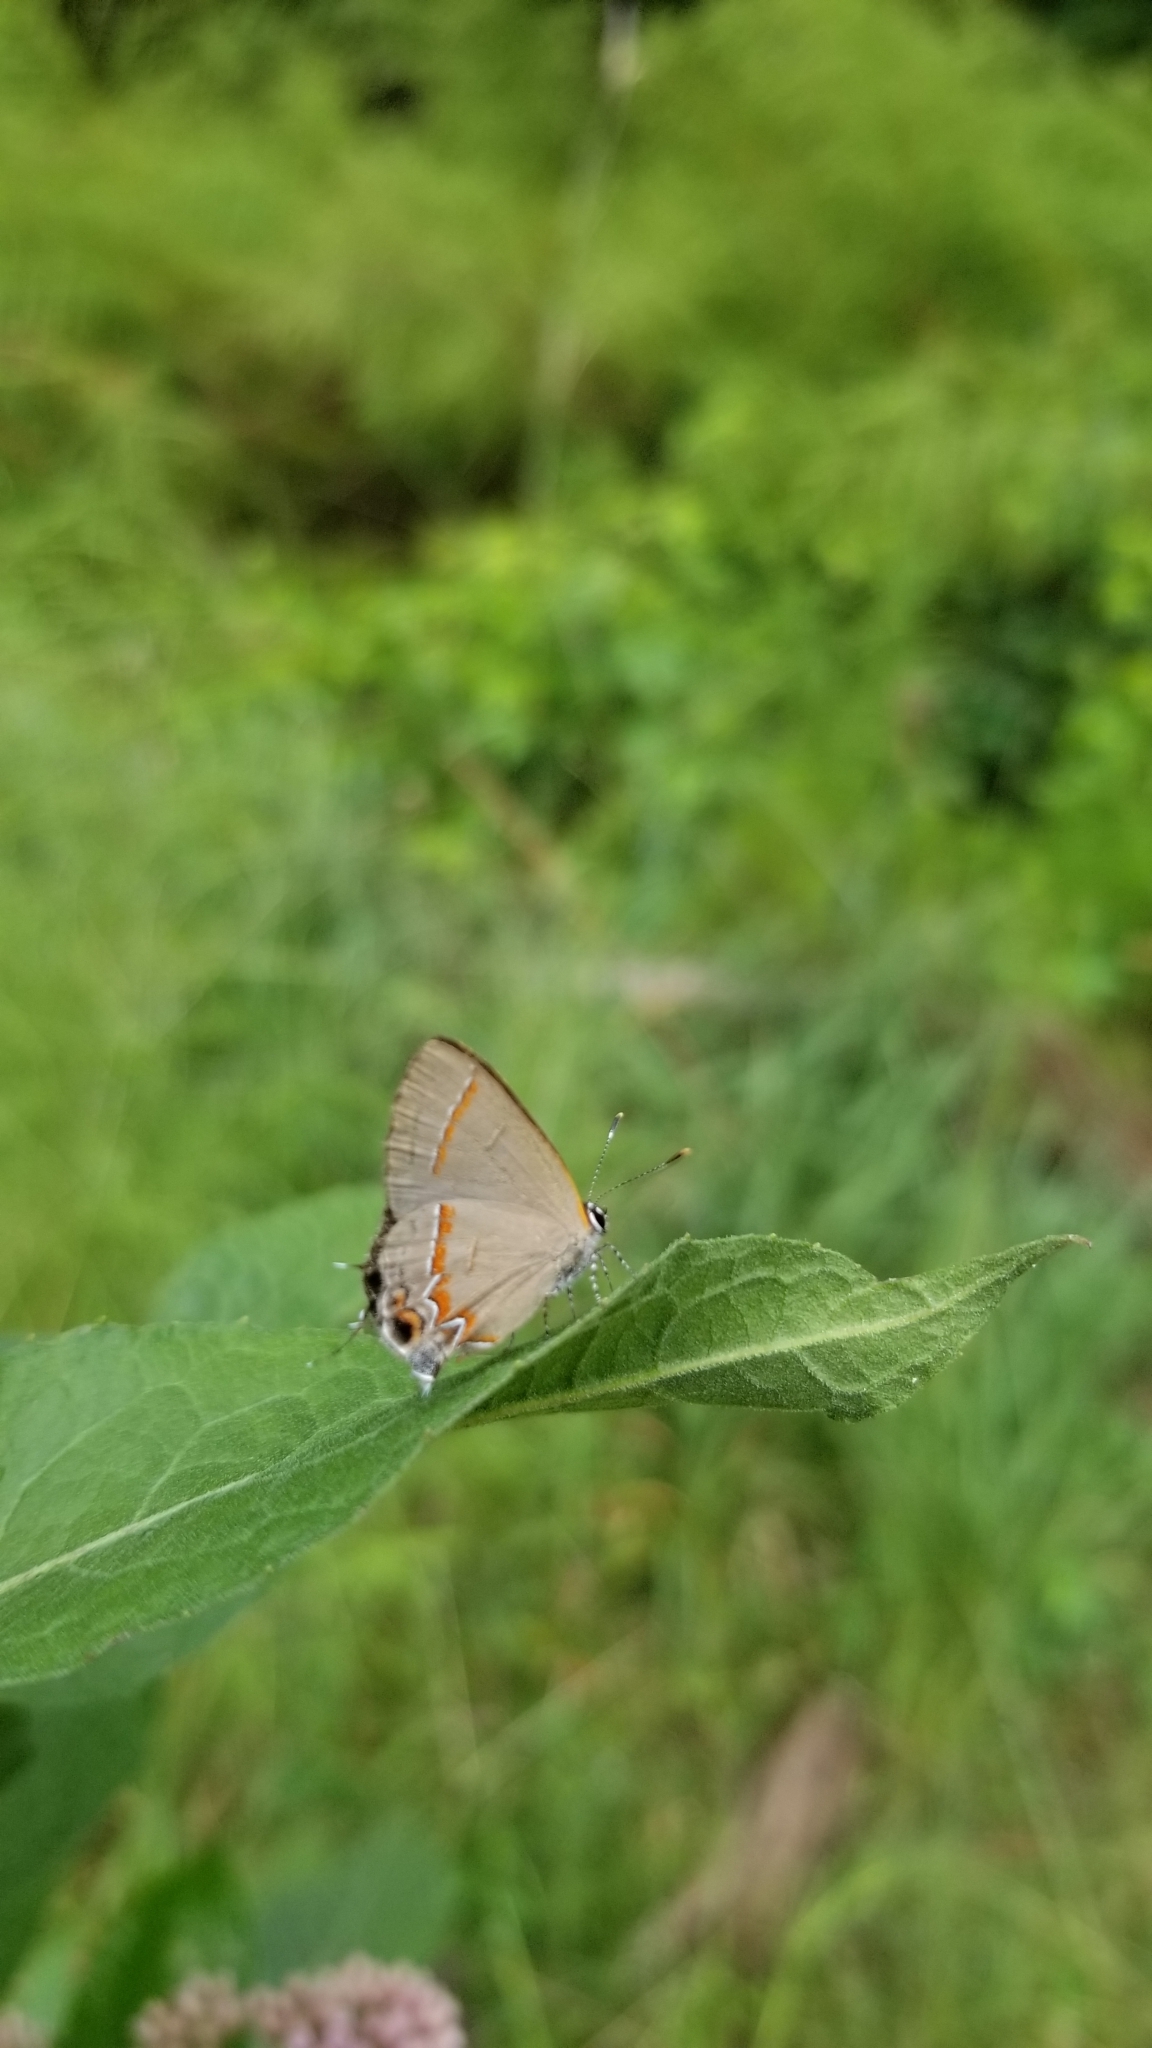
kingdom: Animalia
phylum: Arthropoda
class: Insecta
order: Lepidoptera
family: Lycaenidae
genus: Calycopis
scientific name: Calycopis cecrops
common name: Red-banded hairstreak
